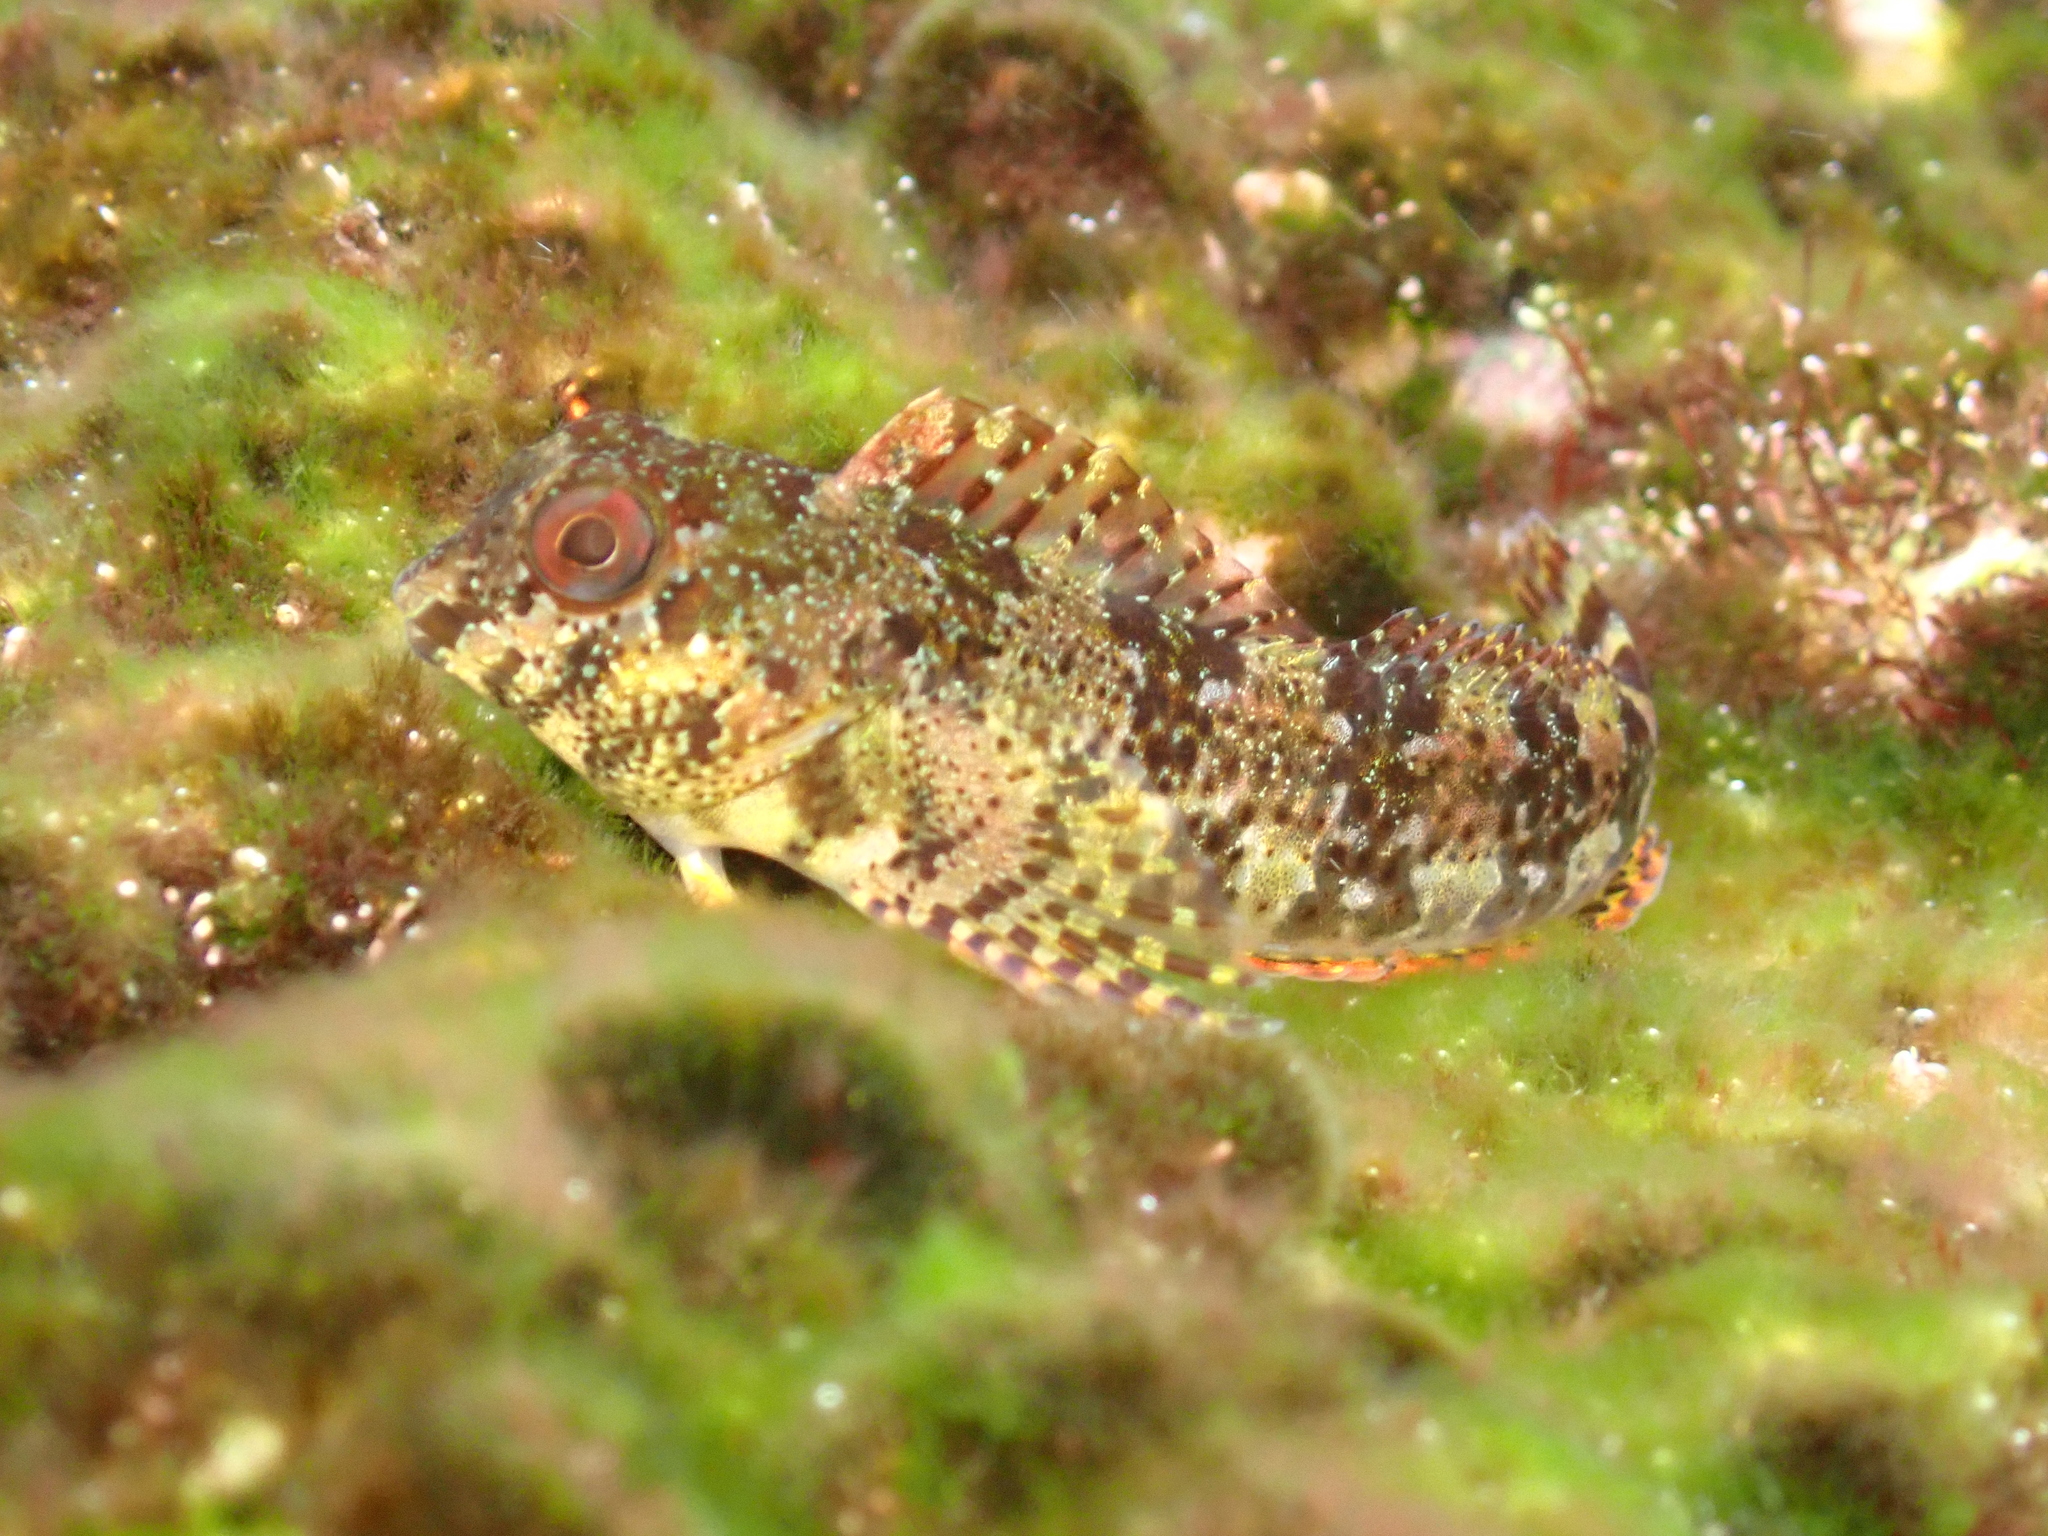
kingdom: Animalia
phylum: Chordata
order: Perciformes
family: Blenniidae
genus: Lipophrys
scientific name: Lipophrys trigloides
